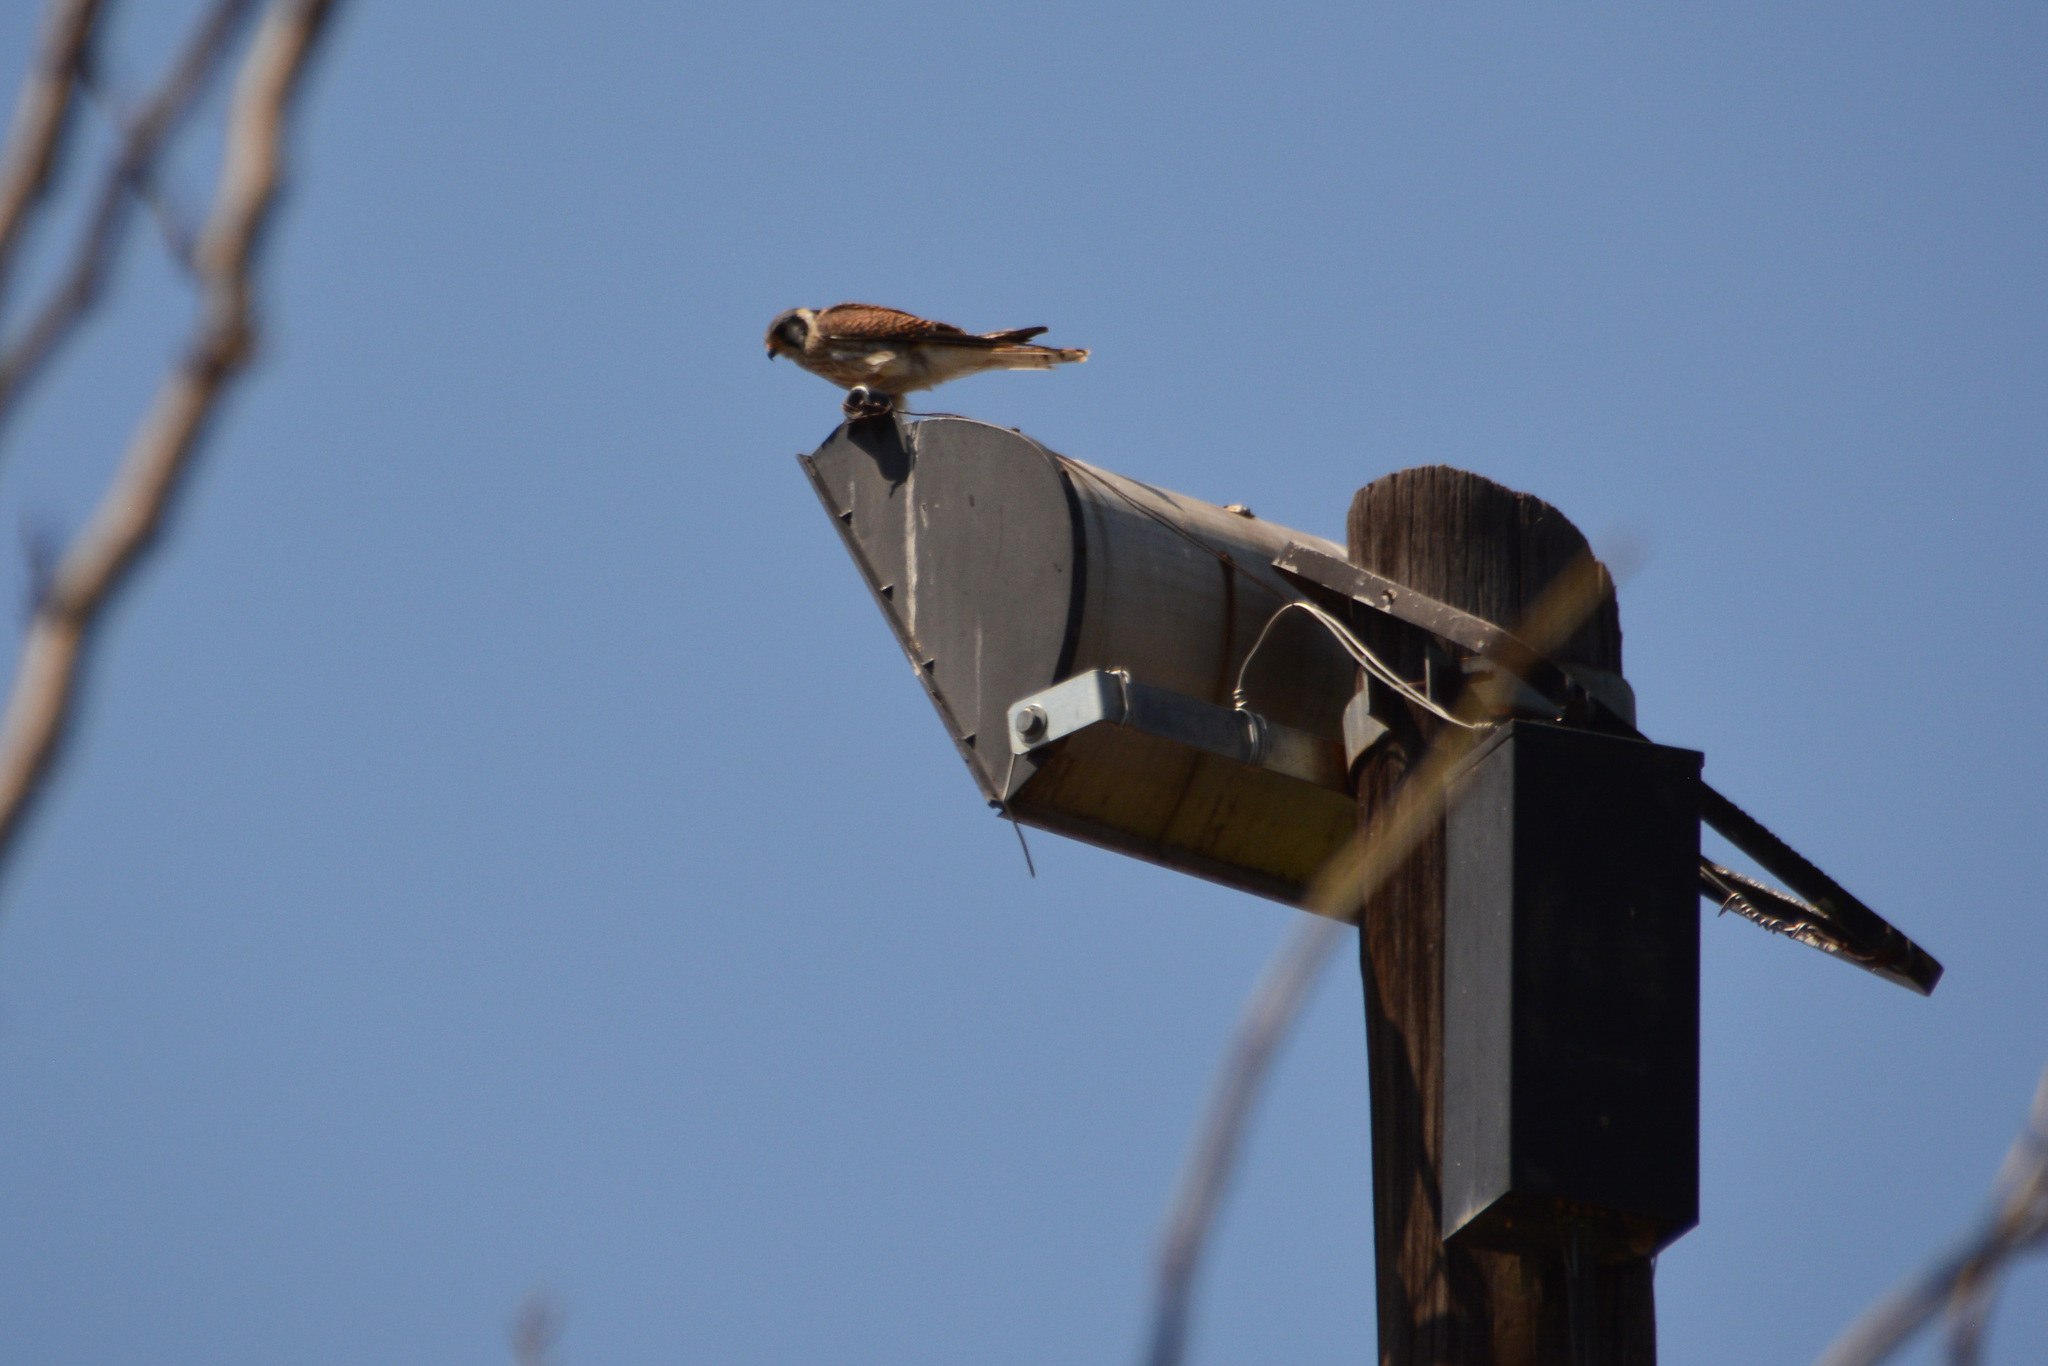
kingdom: Animalia
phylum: Chordata
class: Aves
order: Falconiformes
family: Falconidae
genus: Falco
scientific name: Falco sparverius
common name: American kestrel
